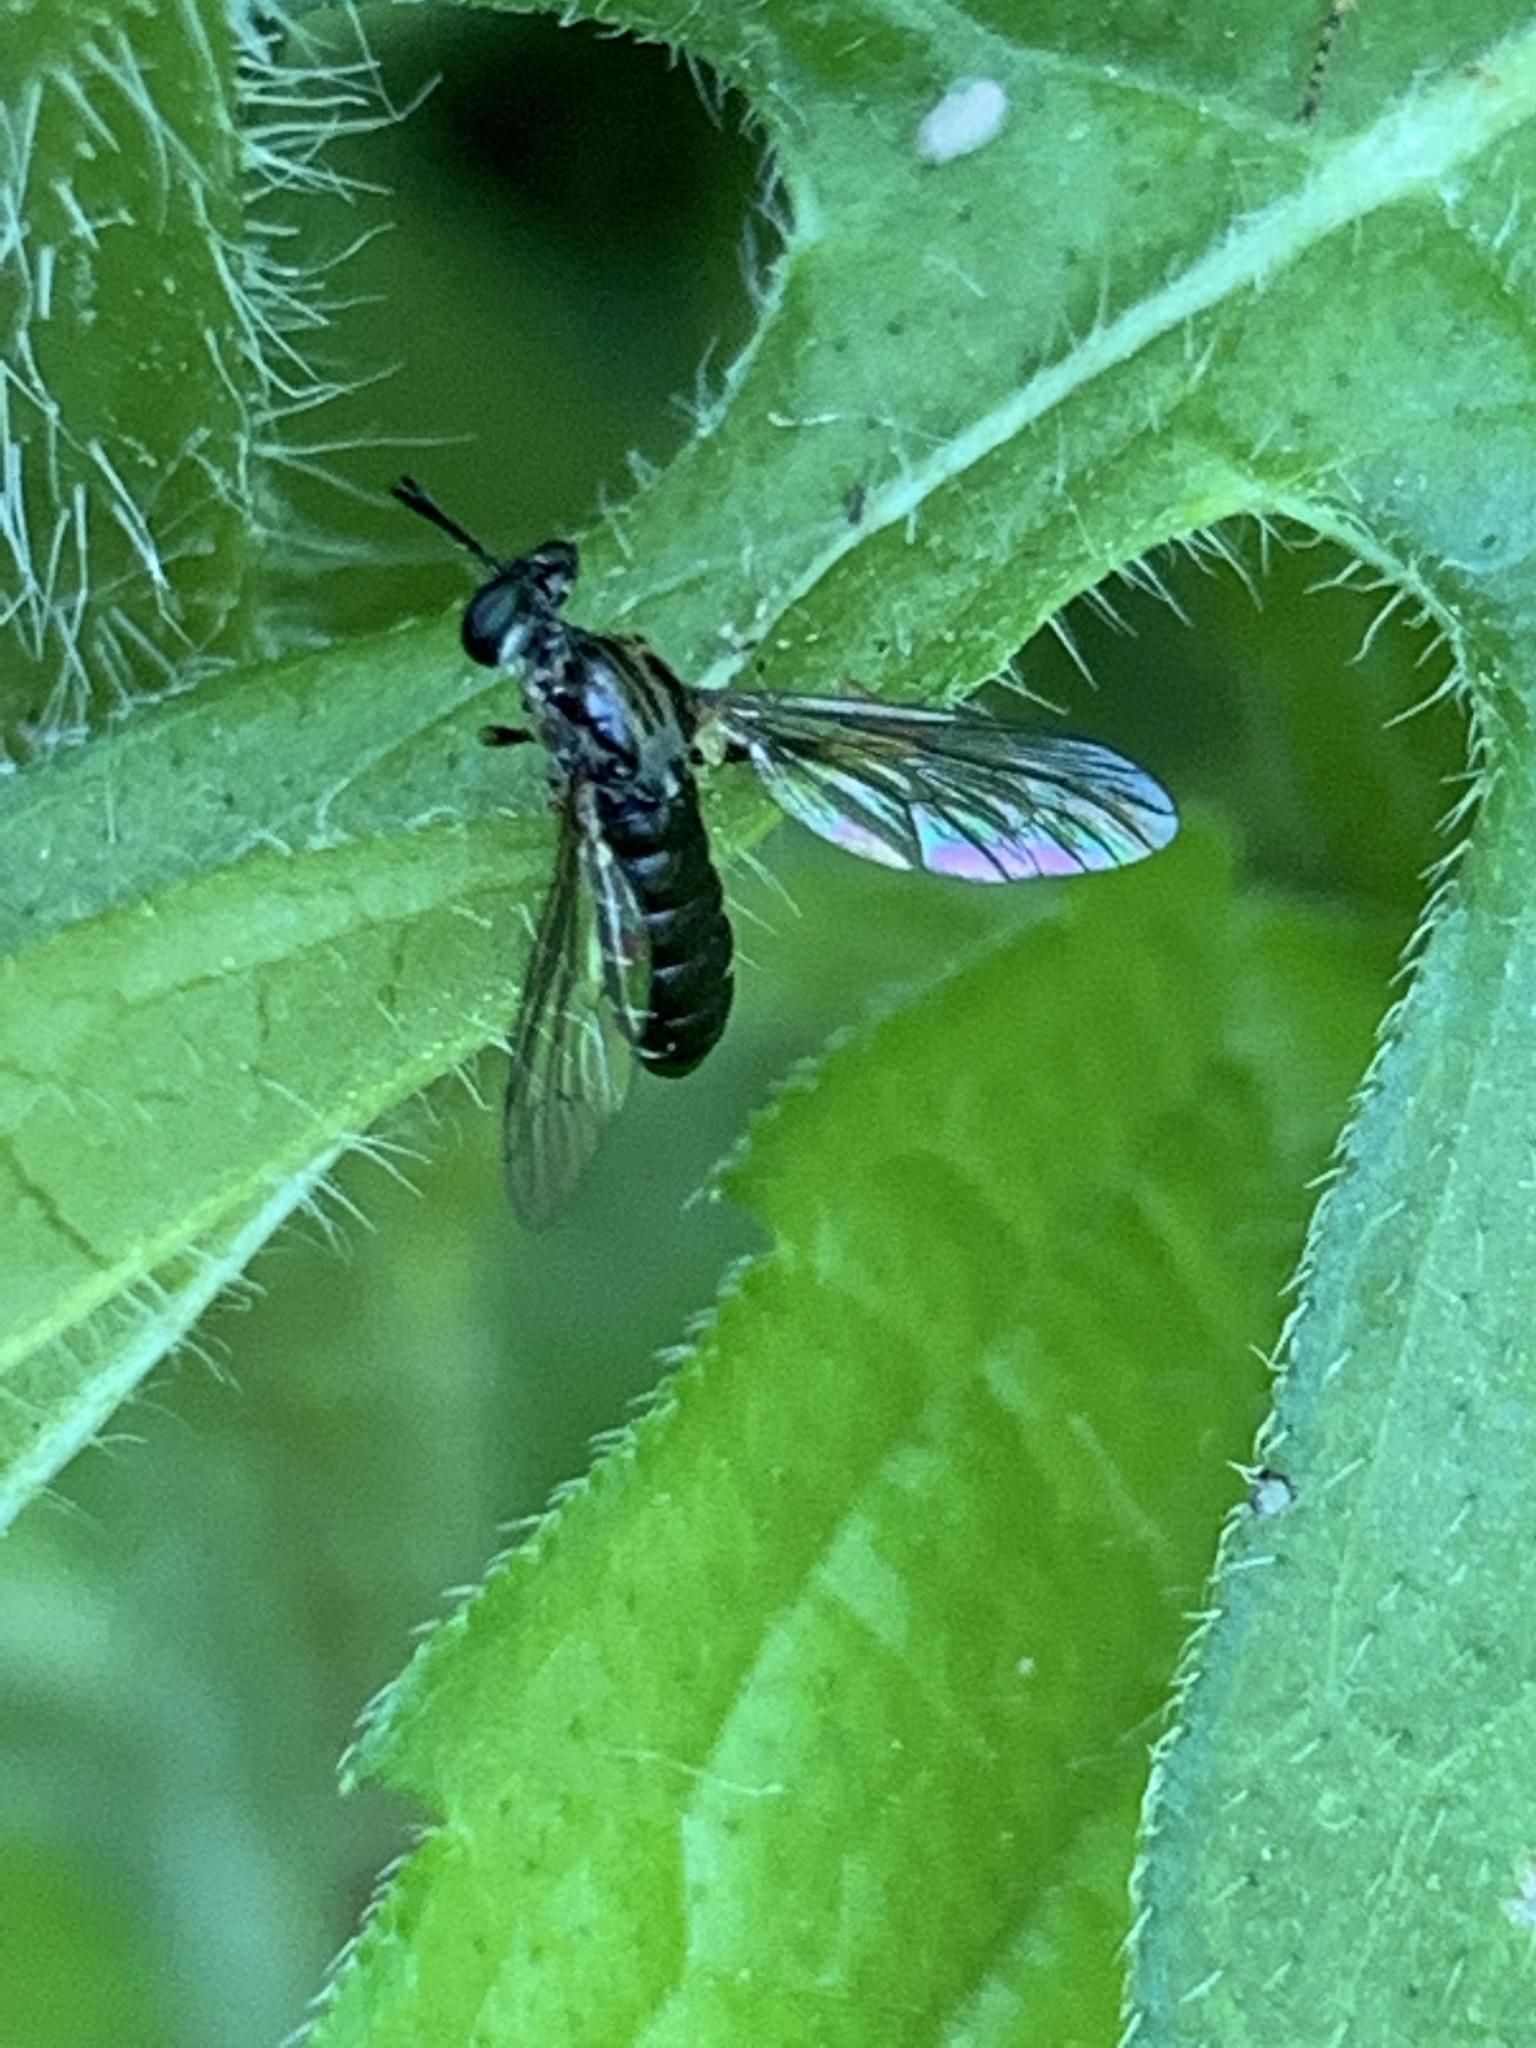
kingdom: Animalia
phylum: Arthropoda
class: Insecta
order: Diptera
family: Asilidae
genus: Taracticus
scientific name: Taracticus octopunctatus
